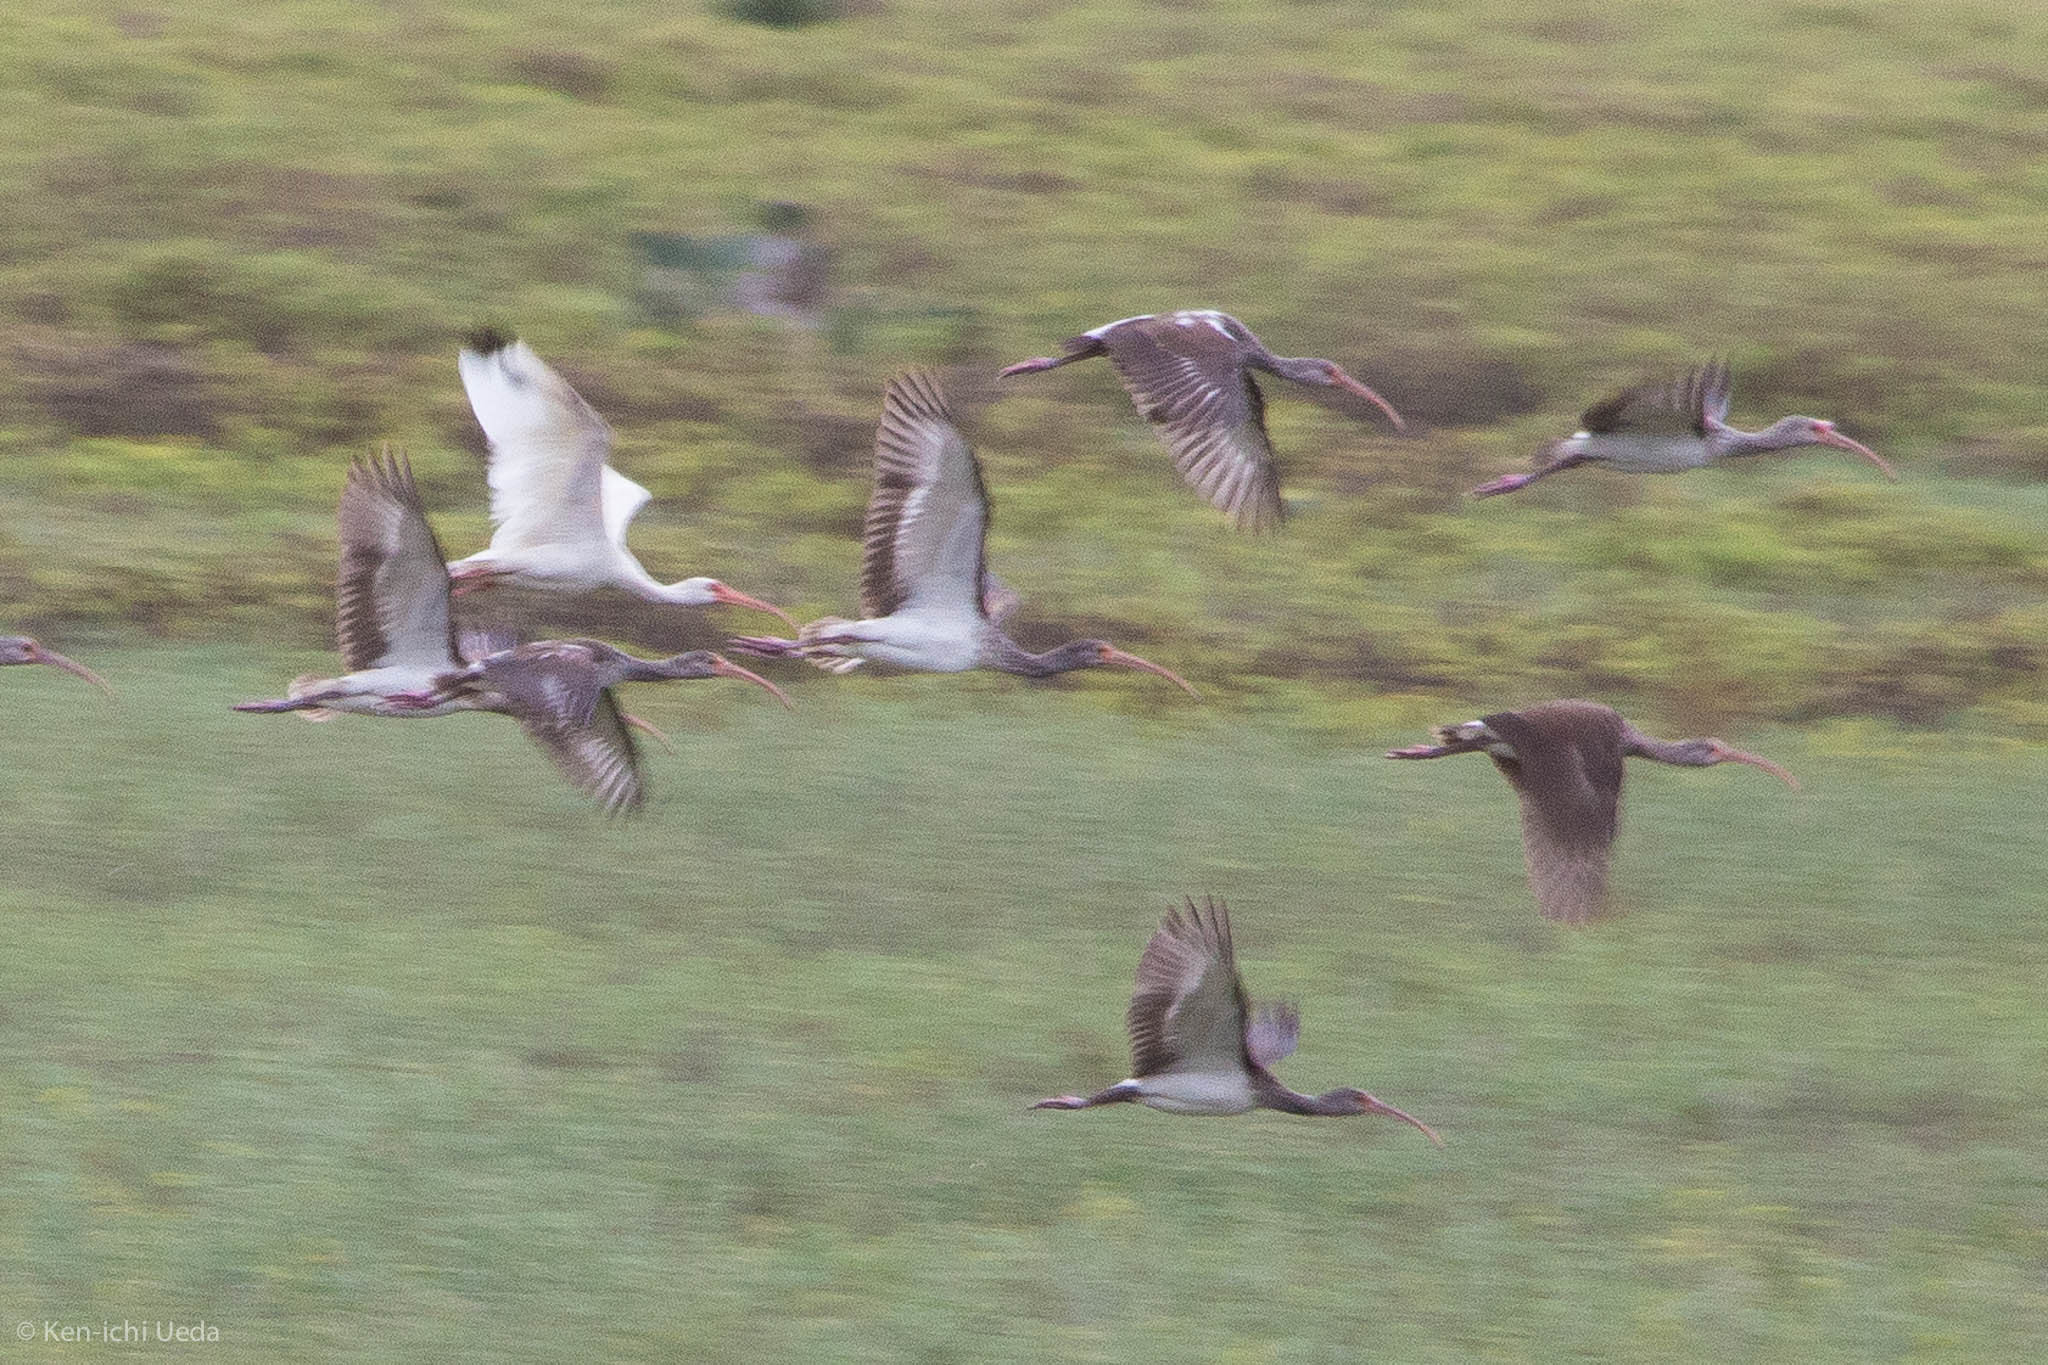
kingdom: Animalia
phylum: Chordata
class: Aves
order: Pelecaniformes
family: Threskiornithidae
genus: Eudocimus
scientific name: Eudocimus albus
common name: White ibis
